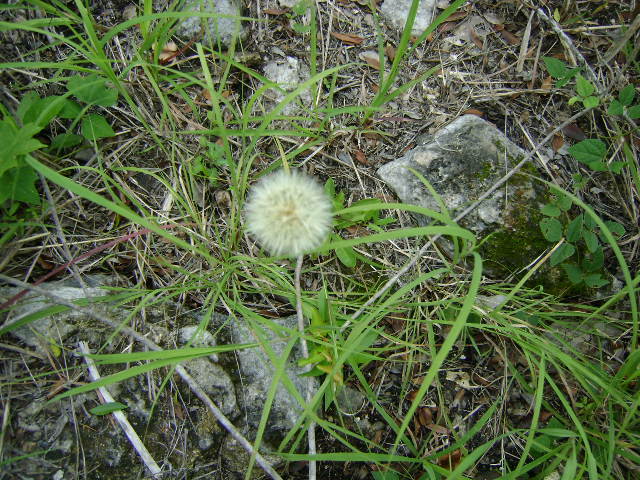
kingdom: Plantae
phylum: Tracheophyta
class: Magnoliopsida
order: Asterales
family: Asteraceae
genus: Chaptalia
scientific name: Chaptalia nutans
